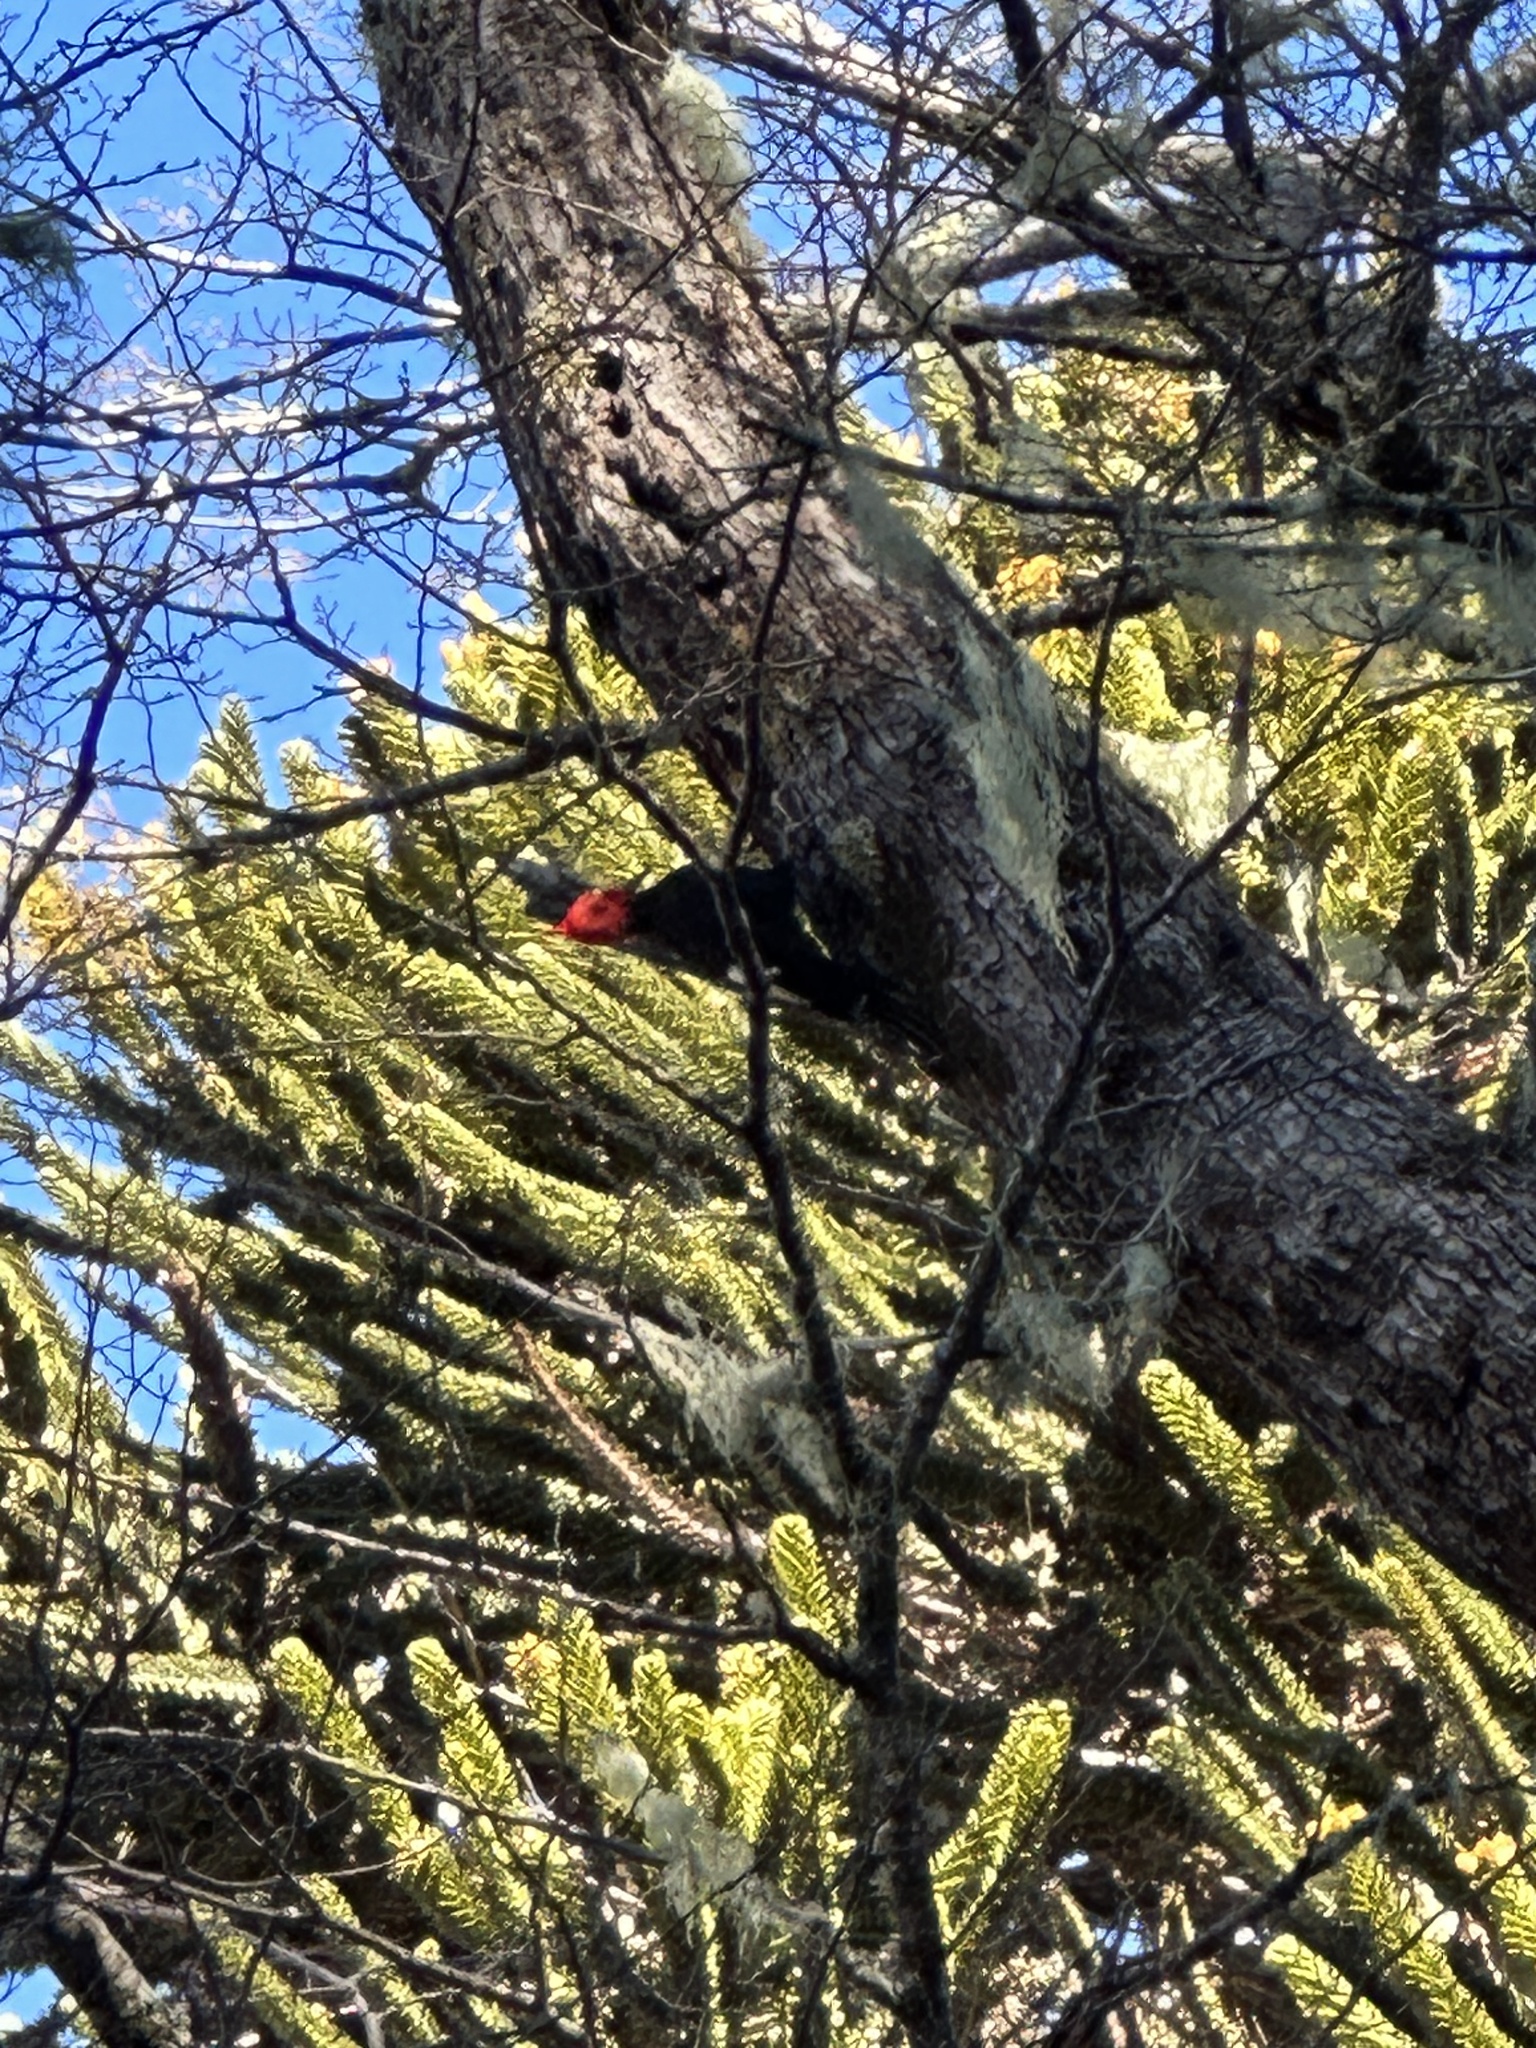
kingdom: Animalia
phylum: Chordata
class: Aves
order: Piciformes
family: Picidae
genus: Campephilus
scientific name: Campephilus magellanicus
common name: Magellanic woodpecker
